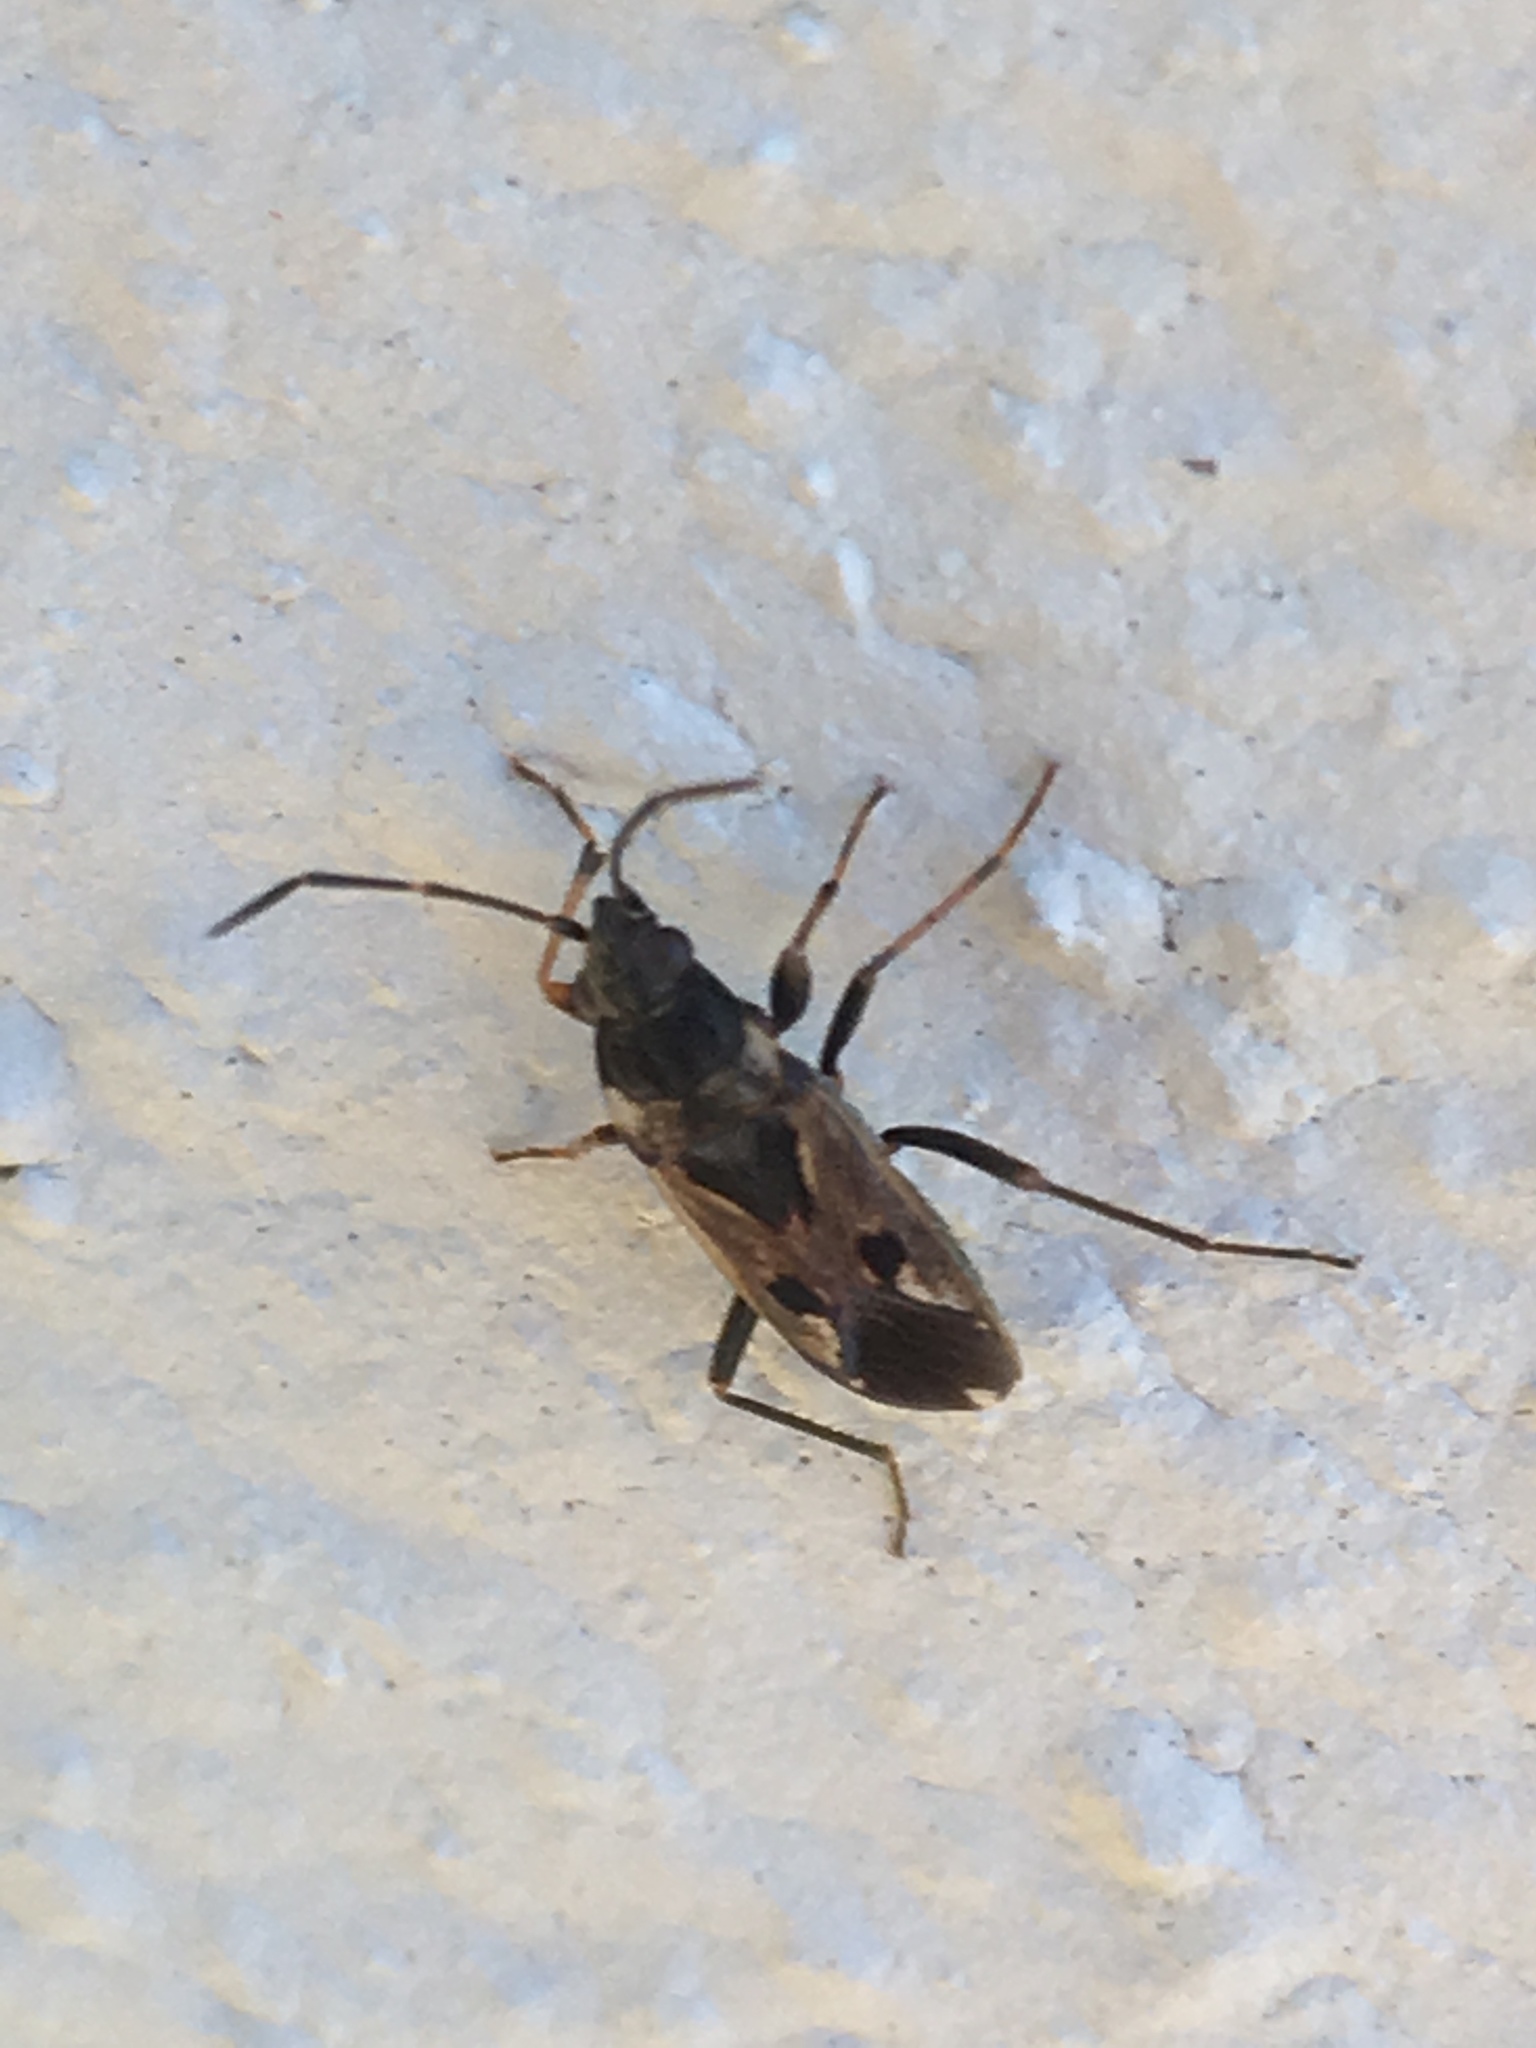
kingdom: Animalia
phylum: Arthropoda
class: Insecta
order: Hemiptera
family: Rhyparochromidae
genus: Rhyparochromus
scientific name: Rhyparochromus vulgaris
